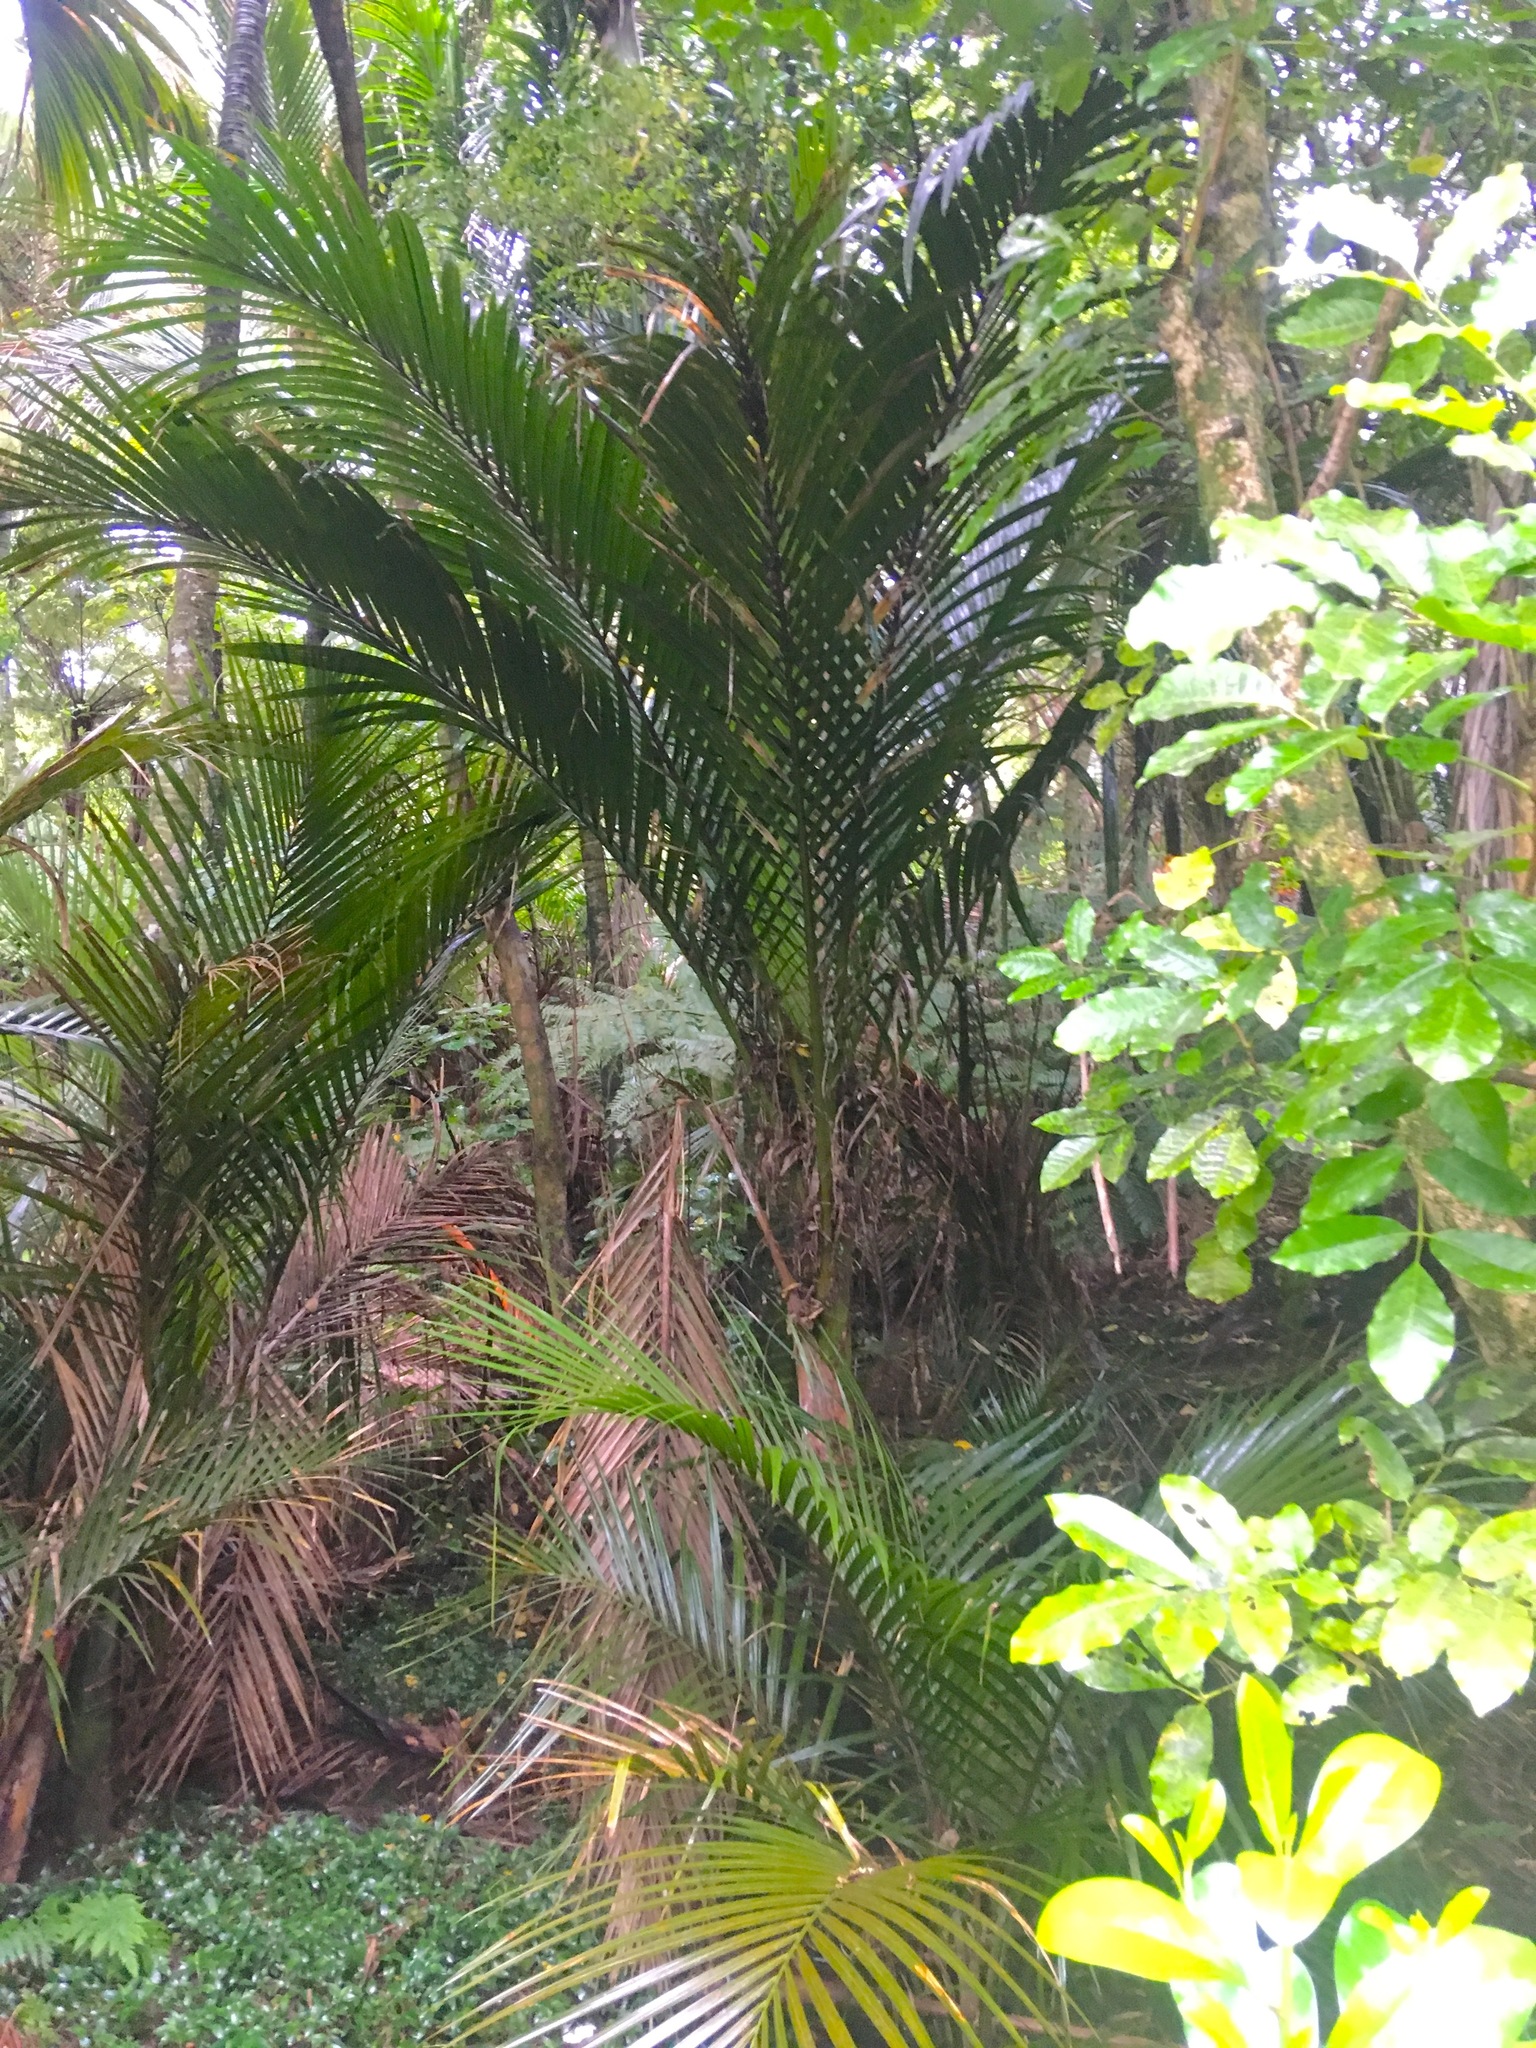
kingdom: Plantae
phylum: Tracheophyta
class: Liliopsida
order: Arecales
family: Arecaceae
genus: Rhopalostylis
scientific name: Rhopalostylis sapida
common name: Feather-duster palm
